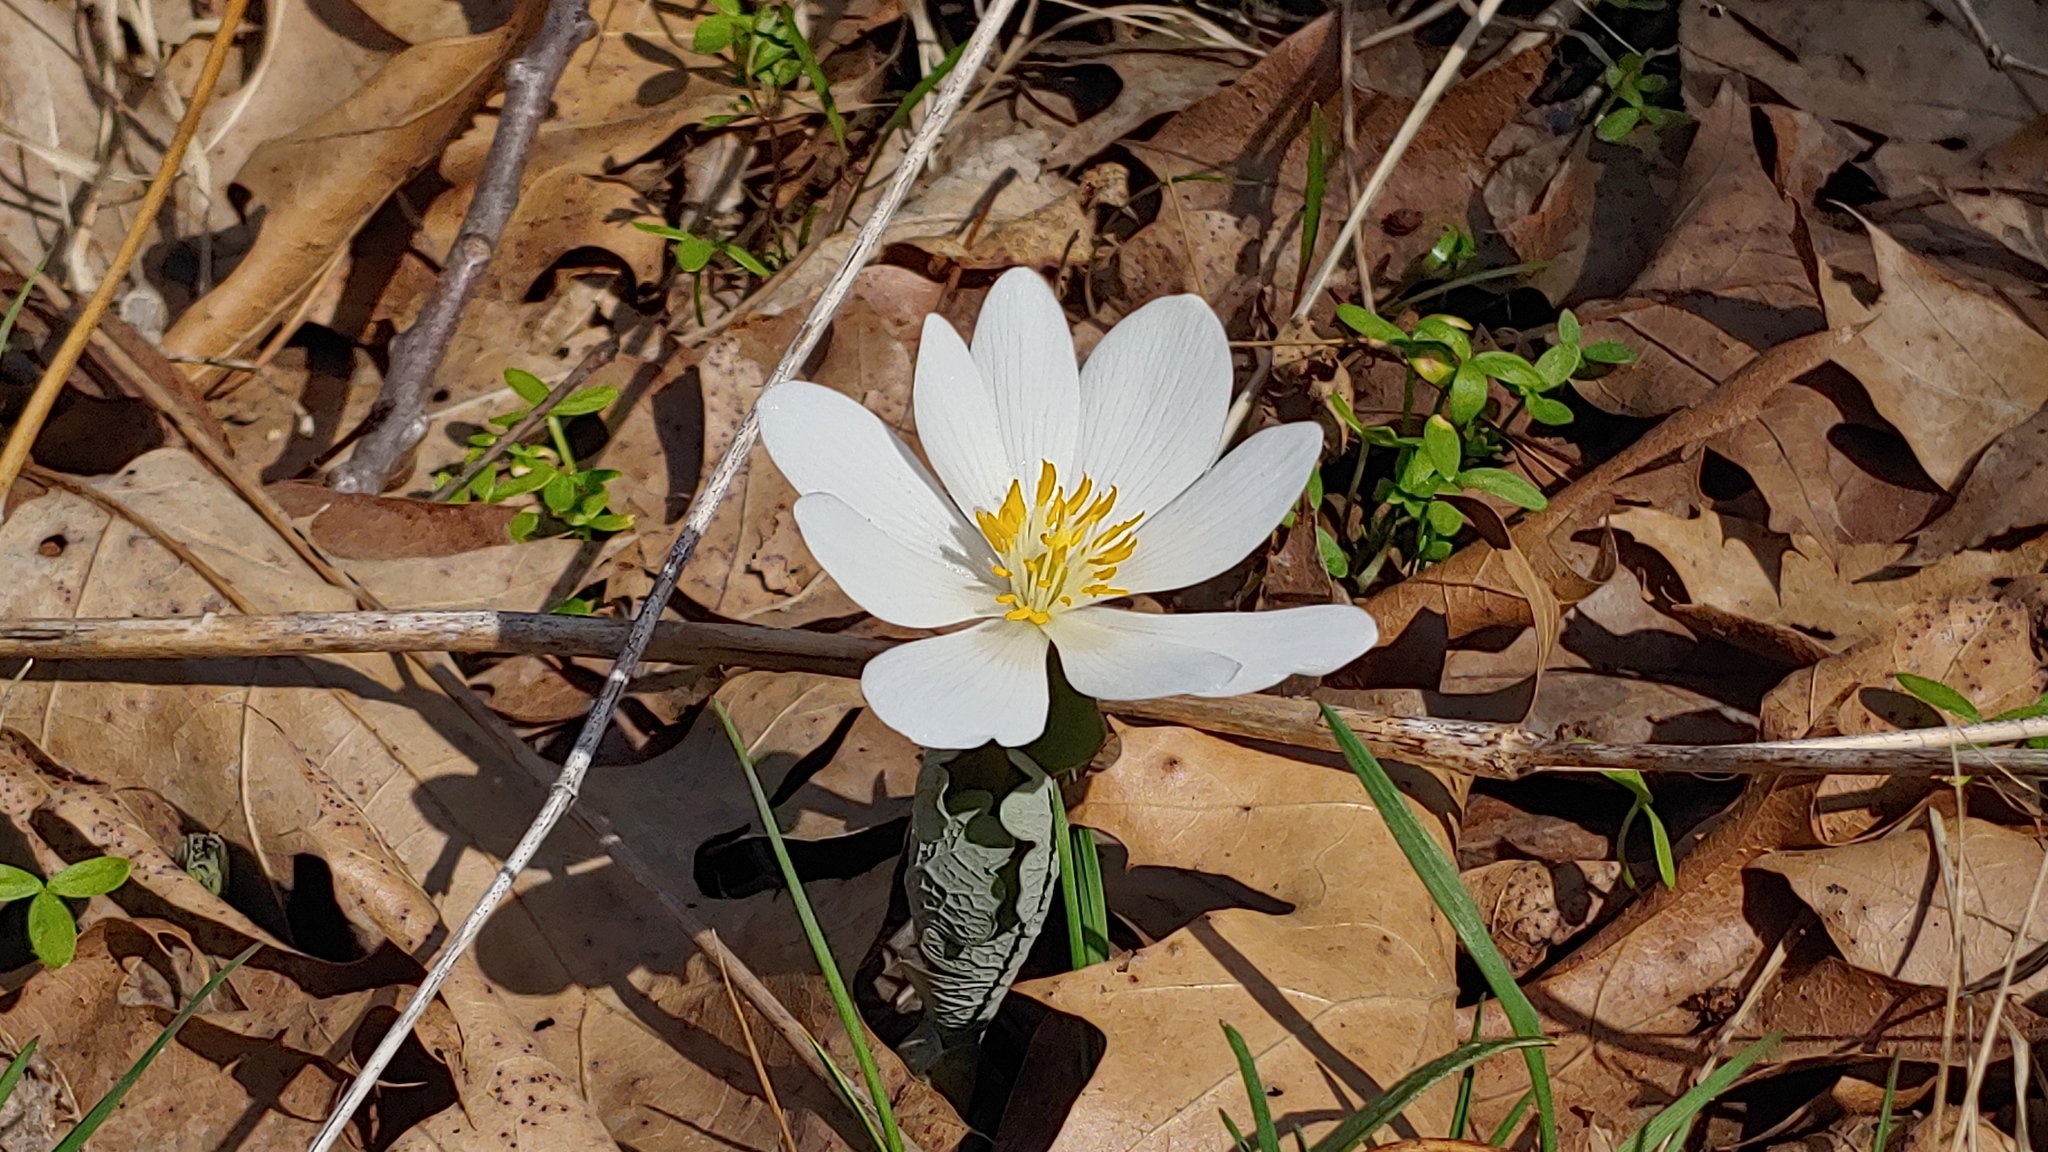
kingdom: Plantae
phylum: Tracheophyta
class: Magnoliopsida
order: Ranunculales
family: Papaveraceae
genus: Sanguinaria
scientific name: Sanguinaria canadensis
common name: Bloodroot
